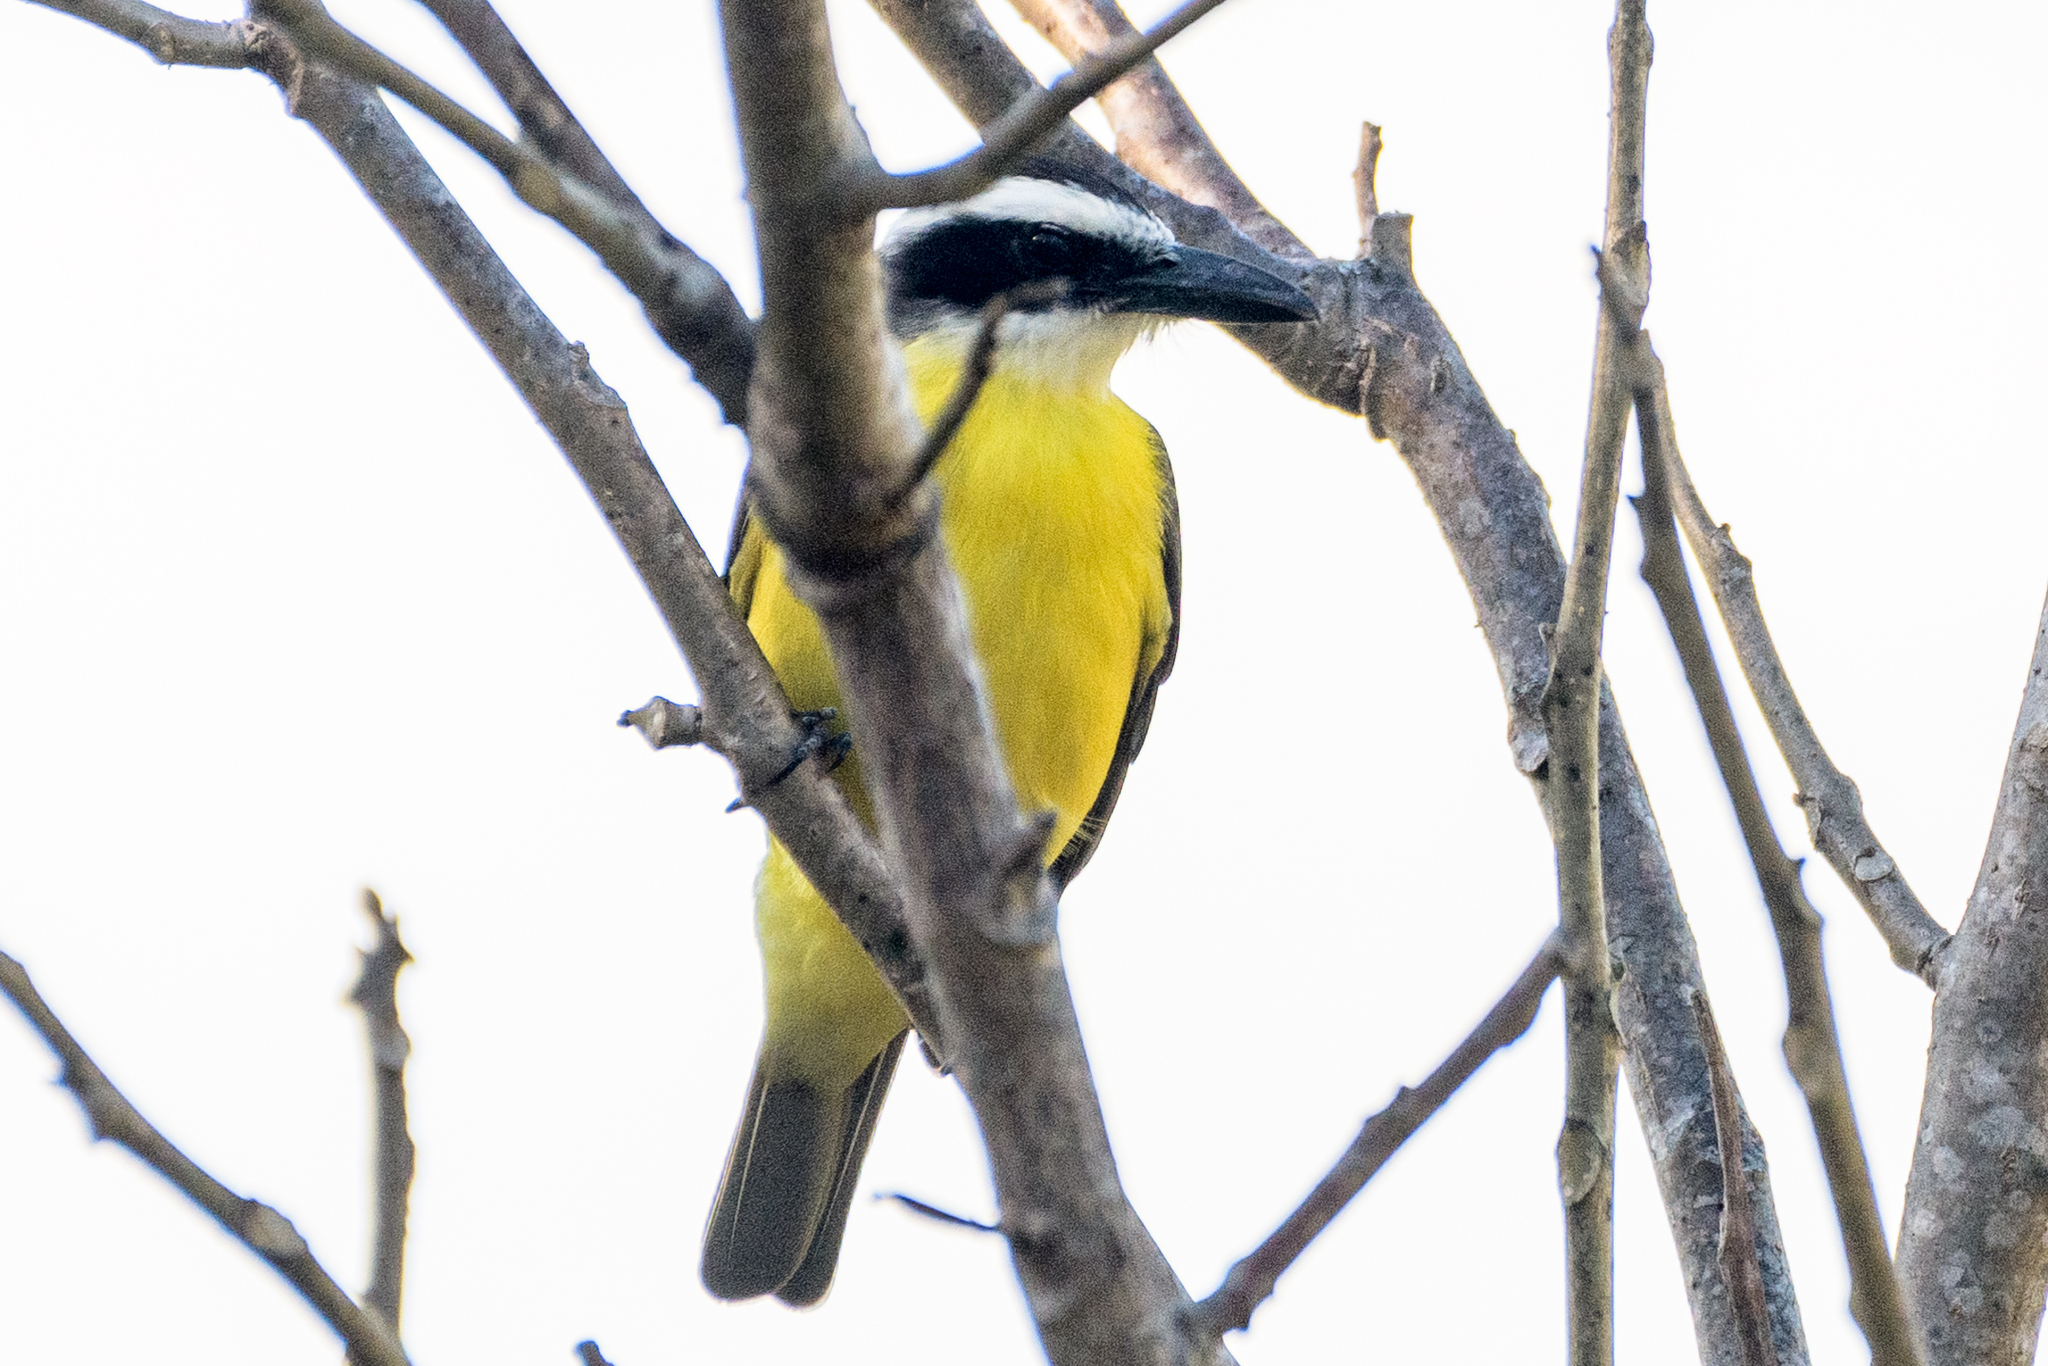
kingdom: Animalia
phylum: Chordata
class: Aves
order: Passeriformes
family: Tyrannidae
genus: Pitangus
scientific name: Pitangus sulphuratus
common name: Great kiskadee
